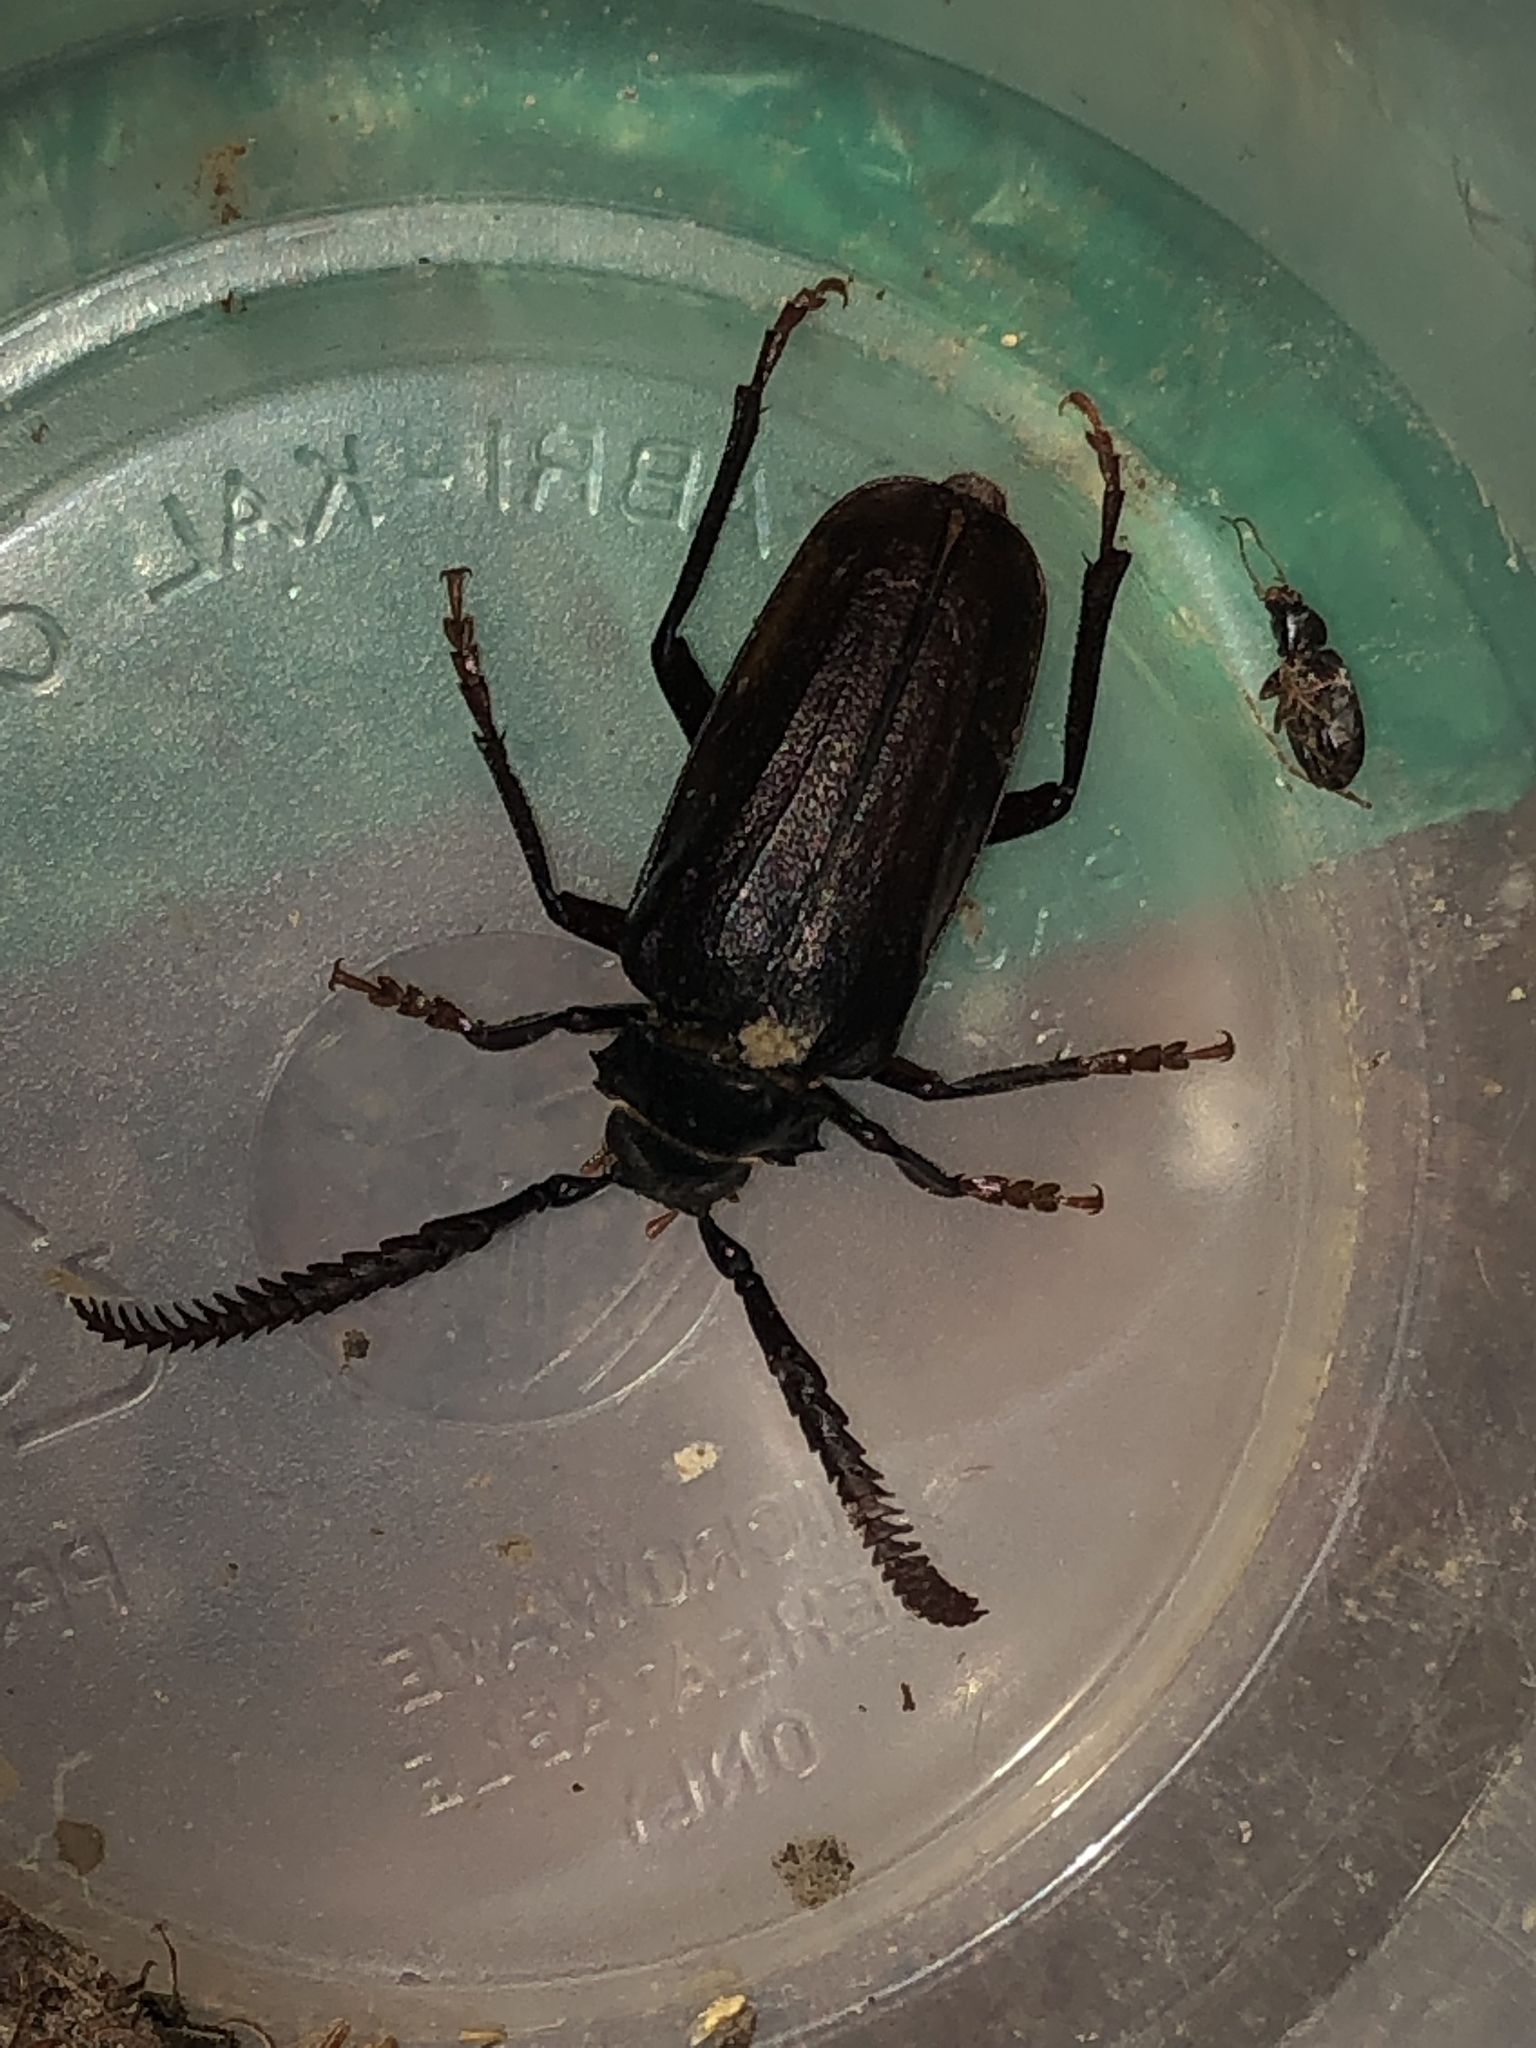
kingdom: Animalia
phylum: Arthropoda
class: Insecta
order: Coleoptera
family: Cerambycidae
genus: Prionus
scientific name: Prionus imbricornis
